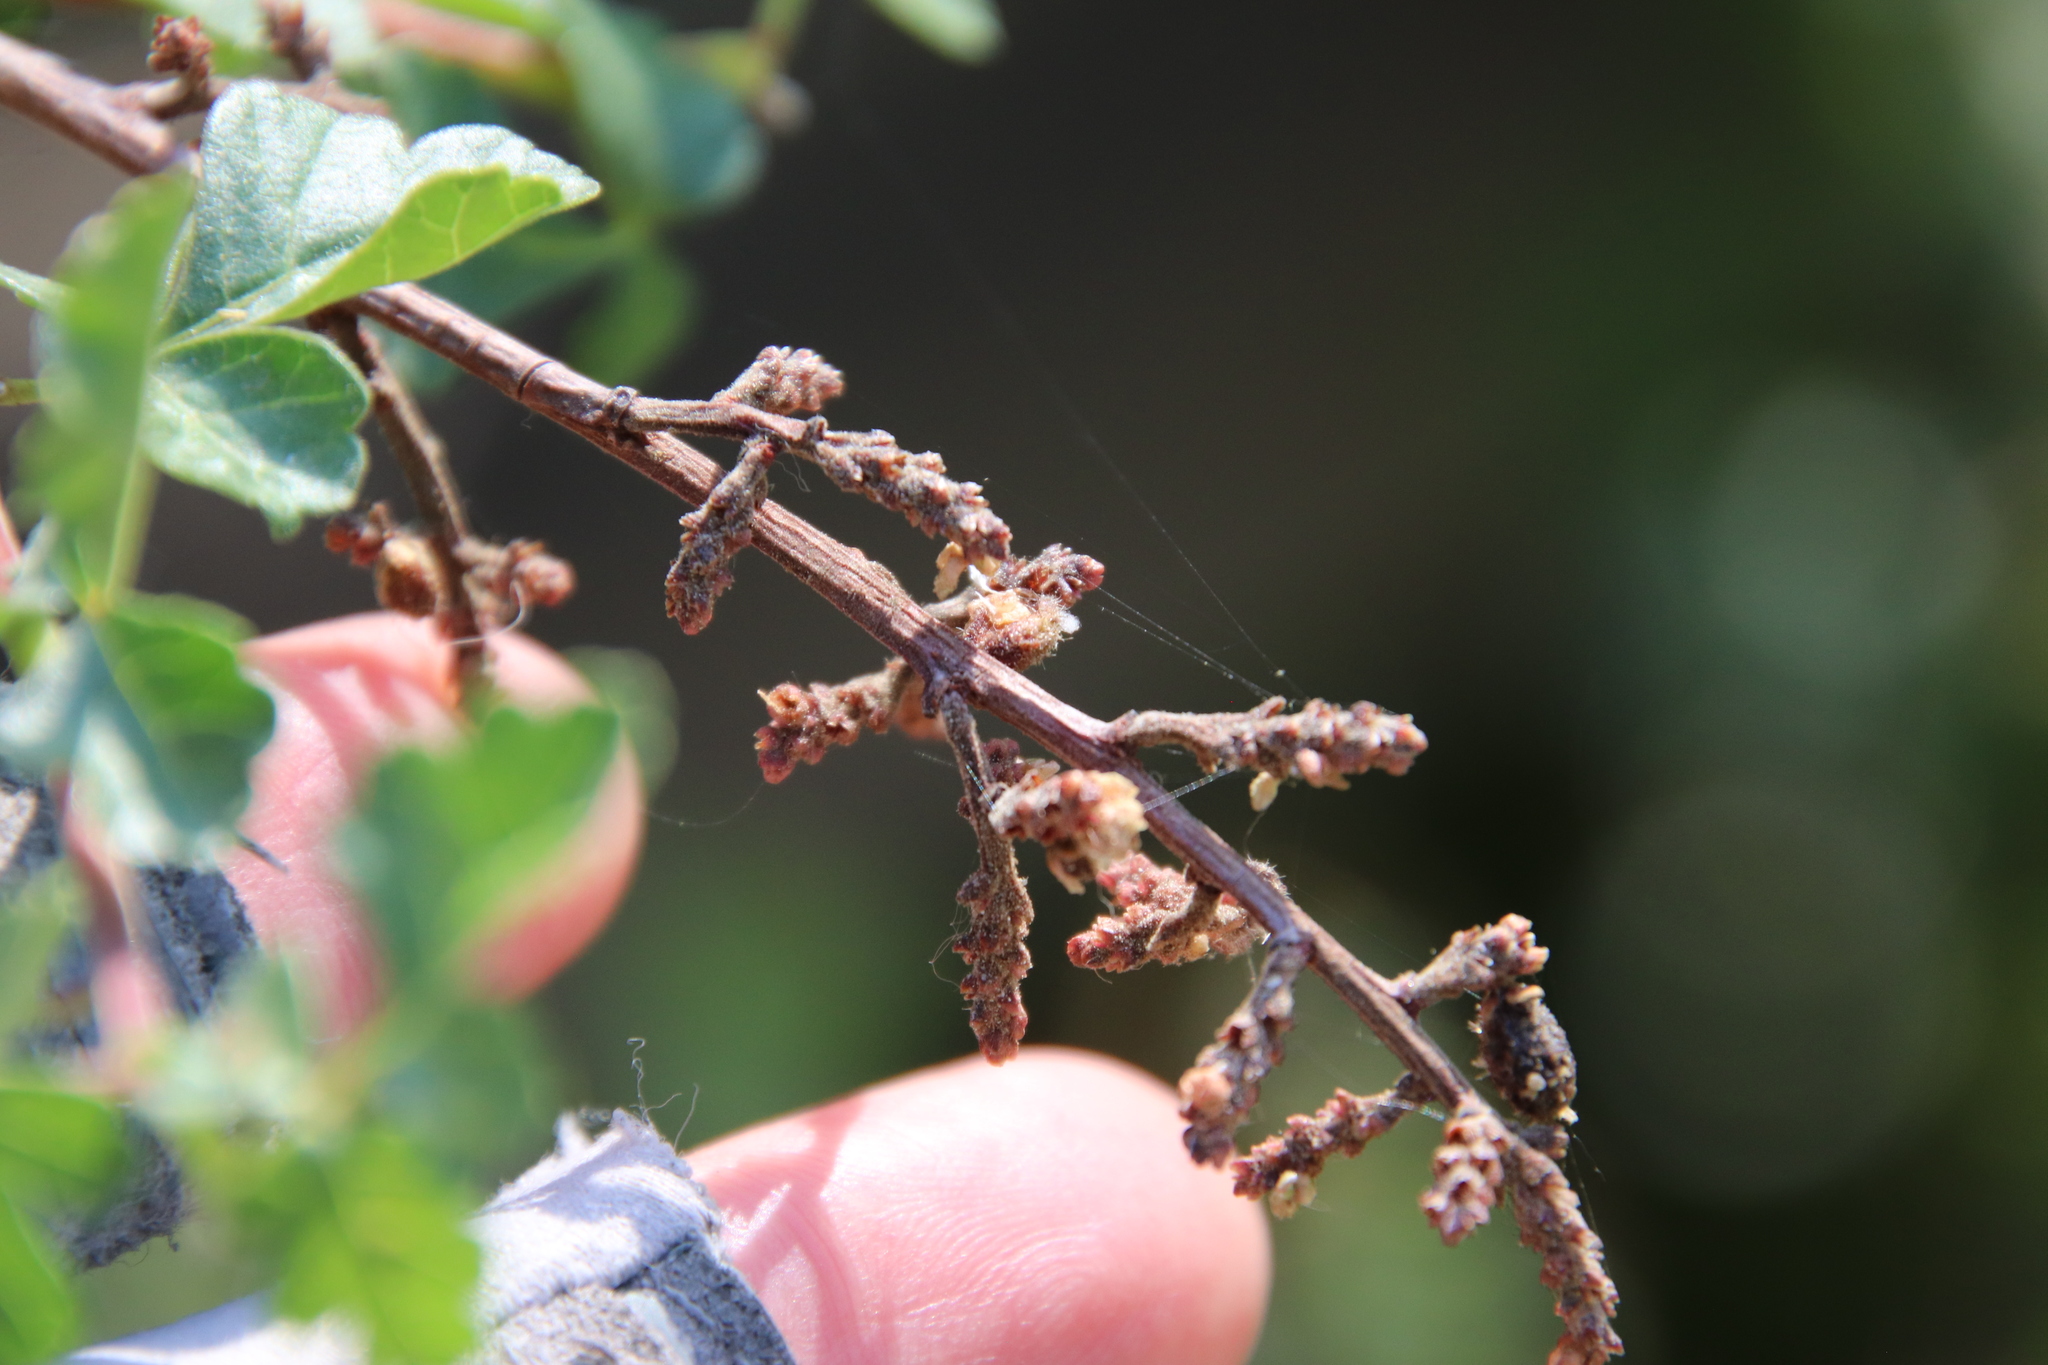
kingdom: Plantae
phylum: Tracheophyta
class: Magnoliopsida
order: Sapindales
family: Anacardiaceae
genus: Rhus
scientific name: Rhus aromatica
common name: Aromatic sumac
